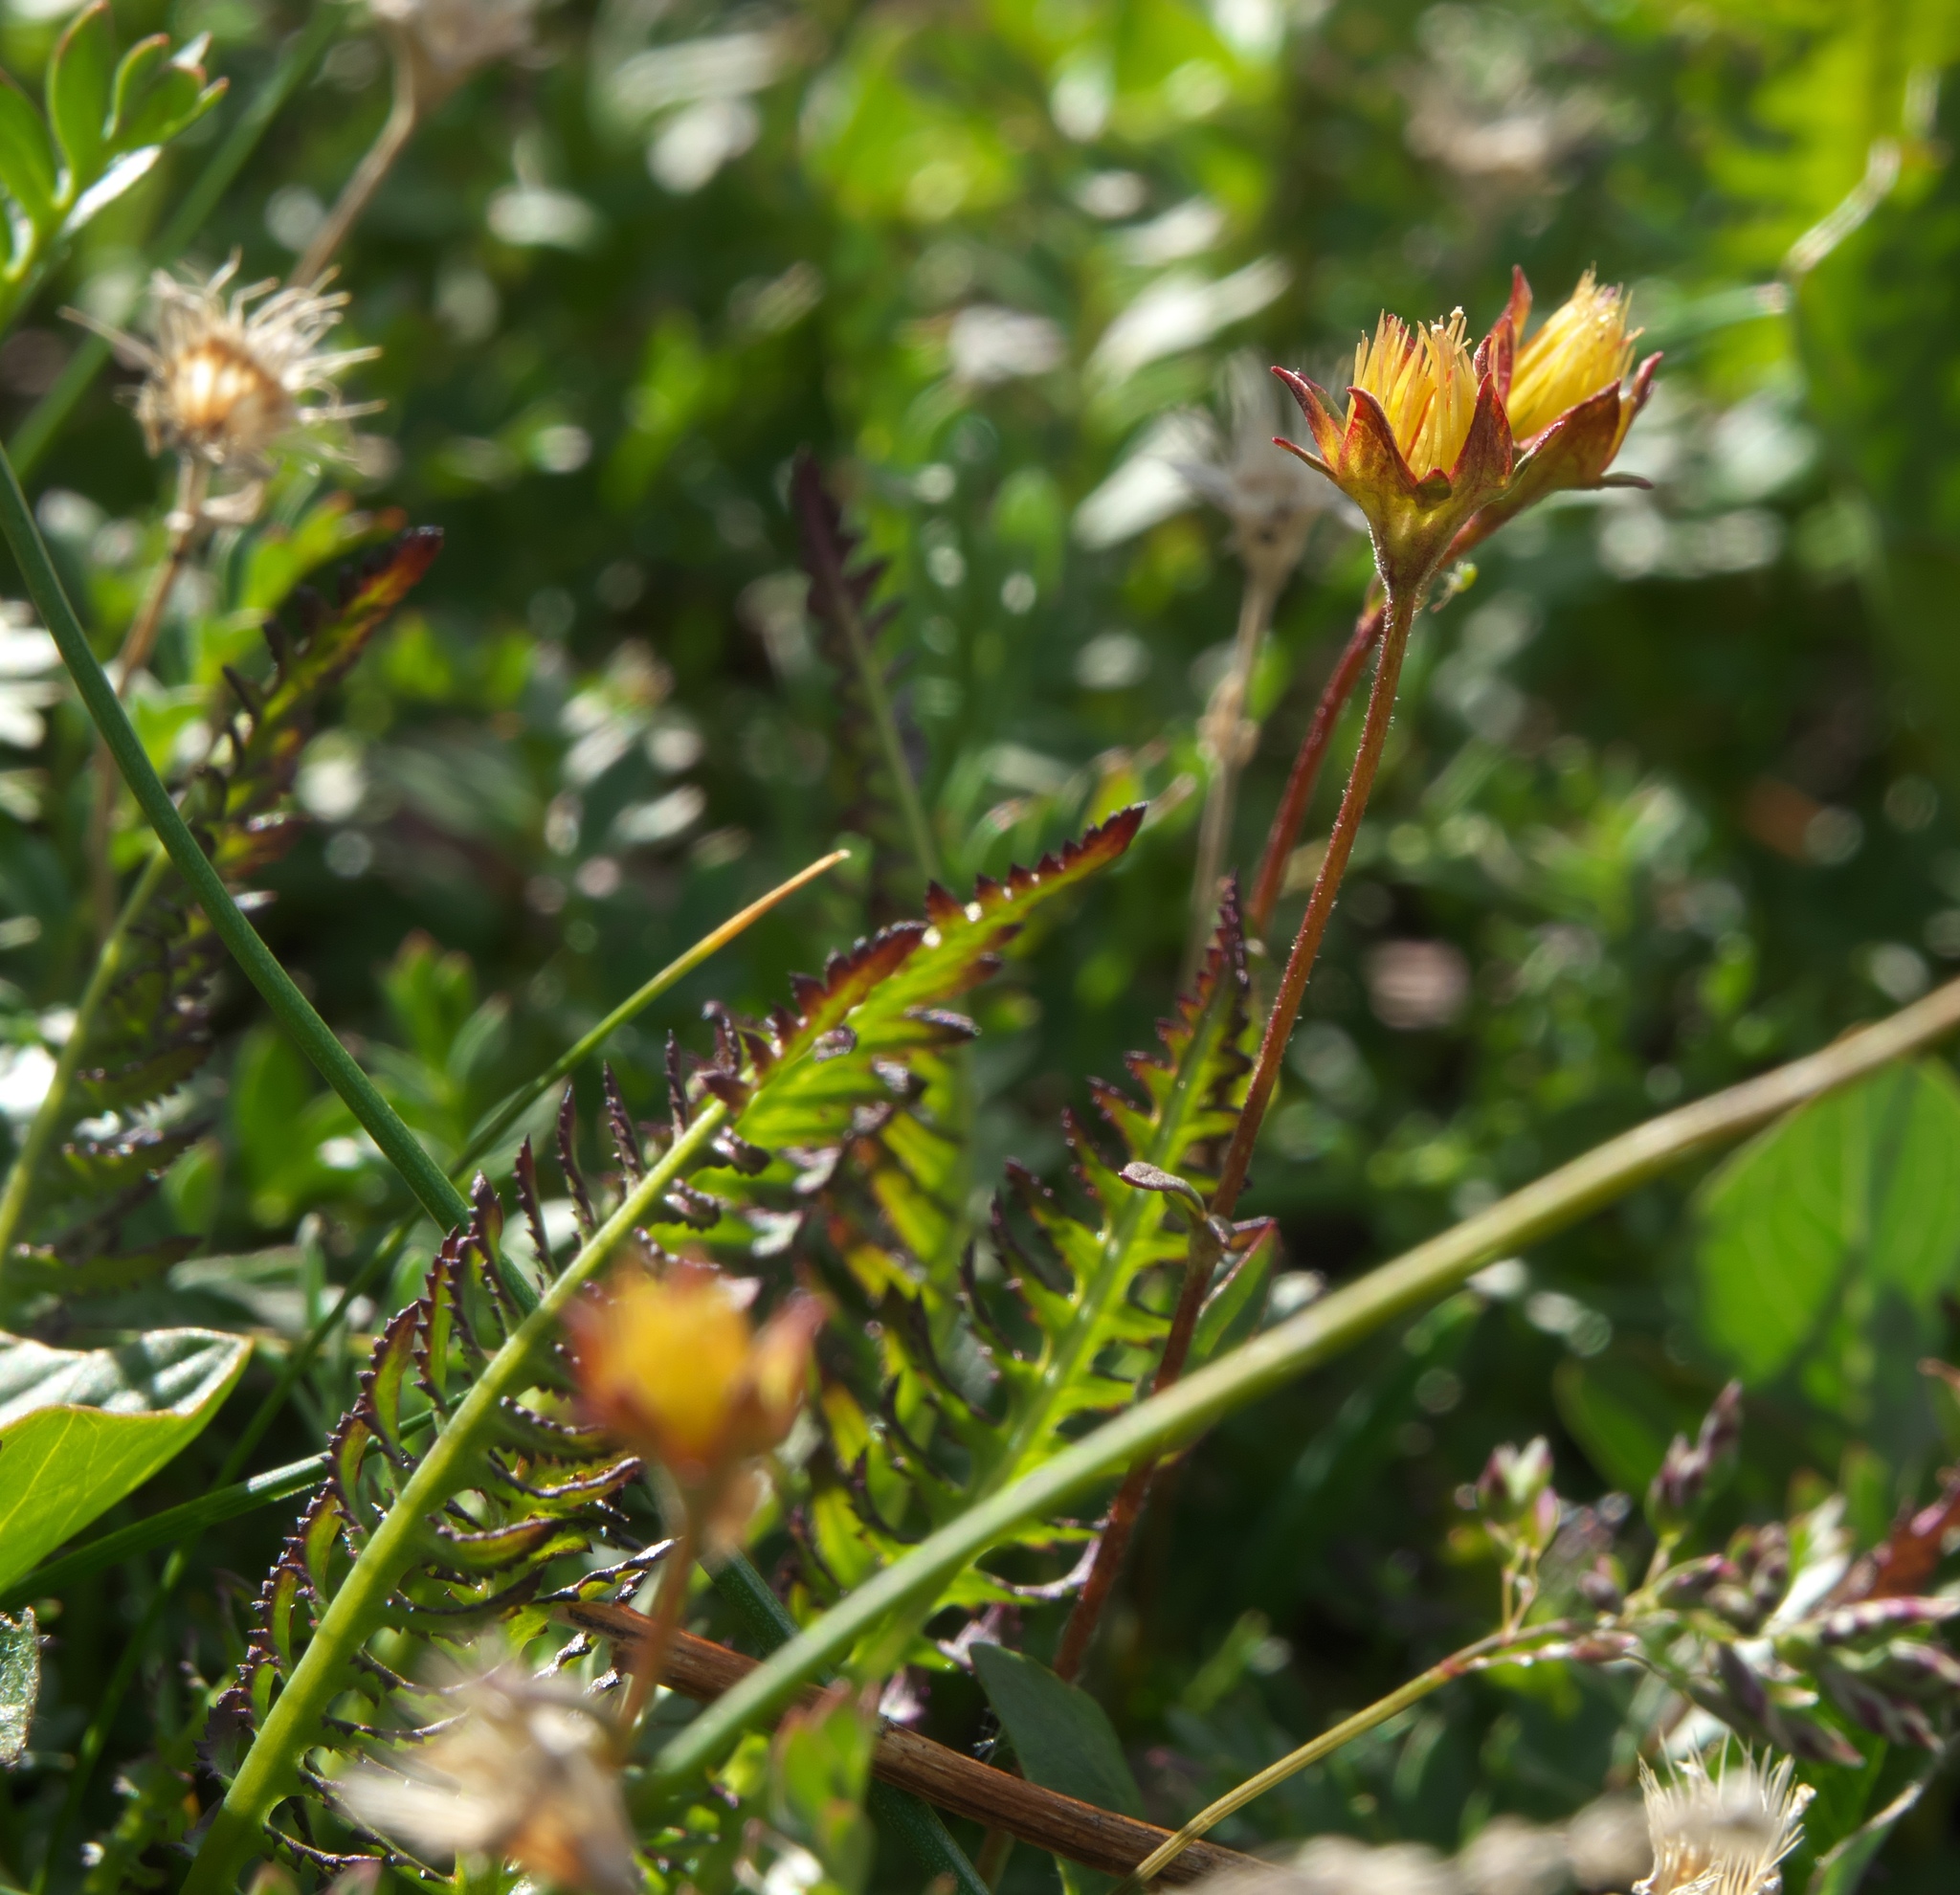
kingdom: Plantae
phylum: Tracheophyta
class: Magnoliopsida
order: Rosales
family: Rosaceae
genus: Geum
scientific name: Geum rossii
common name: Alpine avens
